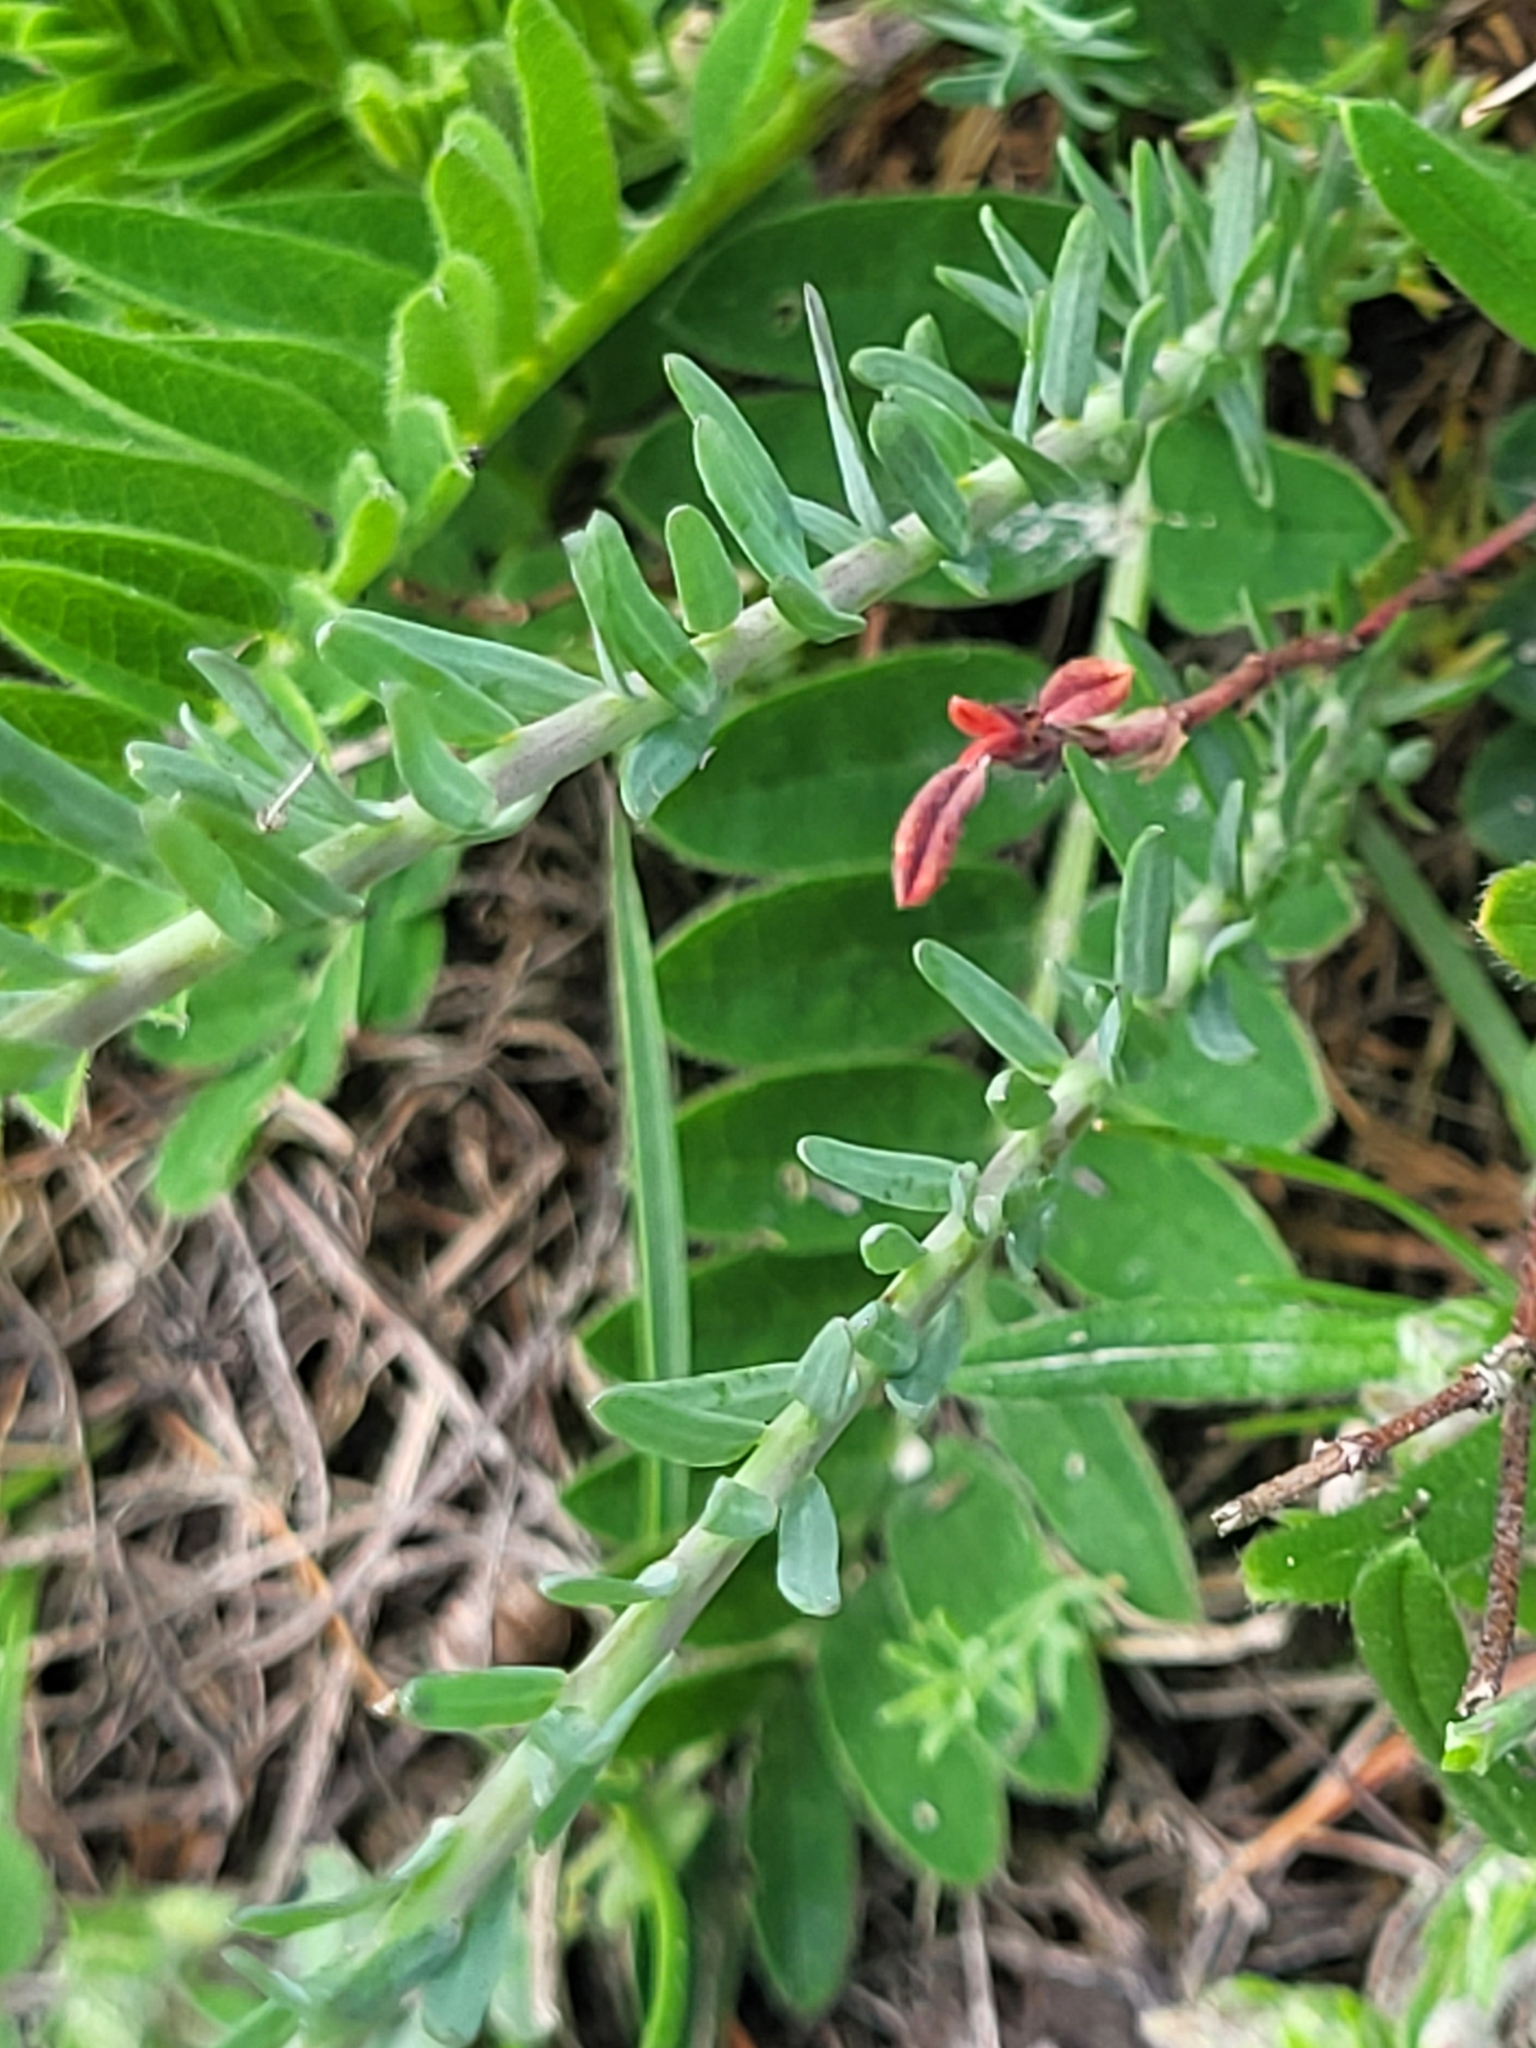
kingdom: Plantae
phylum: Tracheophyta
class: Magnoliopsida
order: Malpighiales
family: Linaceae
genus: Linum
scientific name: Linum austriacum
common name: Austrian flax
